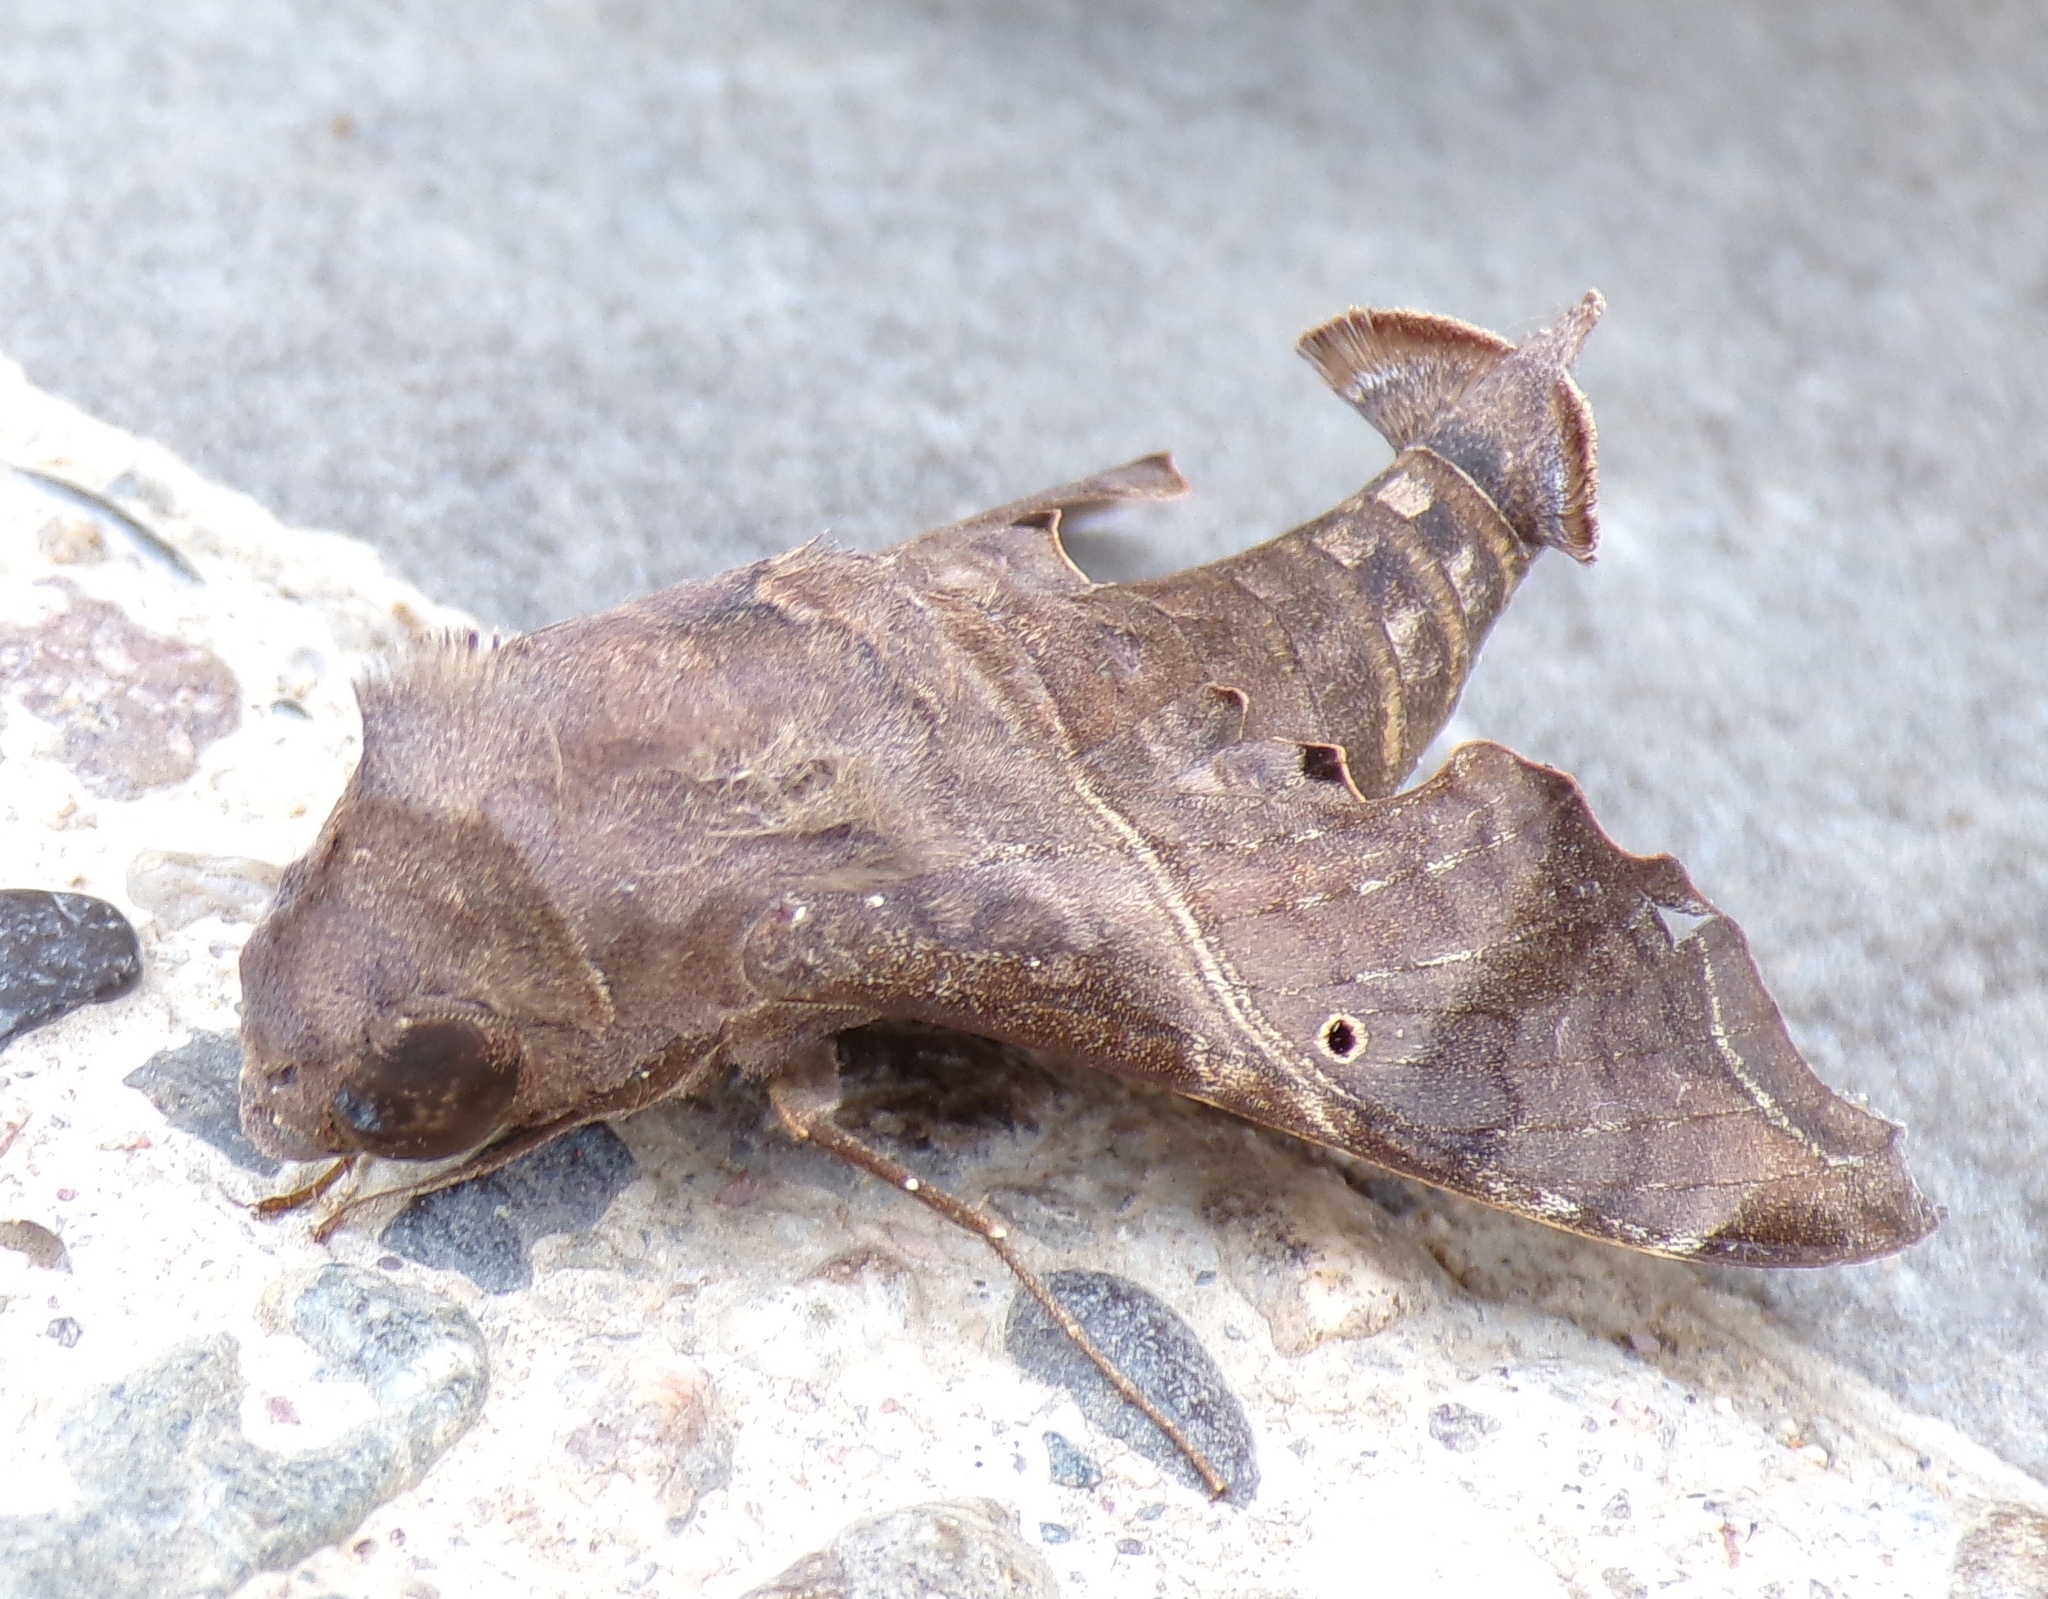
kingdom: Animalia
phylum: Arthropoda
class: Insecta
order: Lepidoptera
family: Sphingidae
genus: Enyo
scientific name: Enyo lugubris
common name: Mournful sphinx
